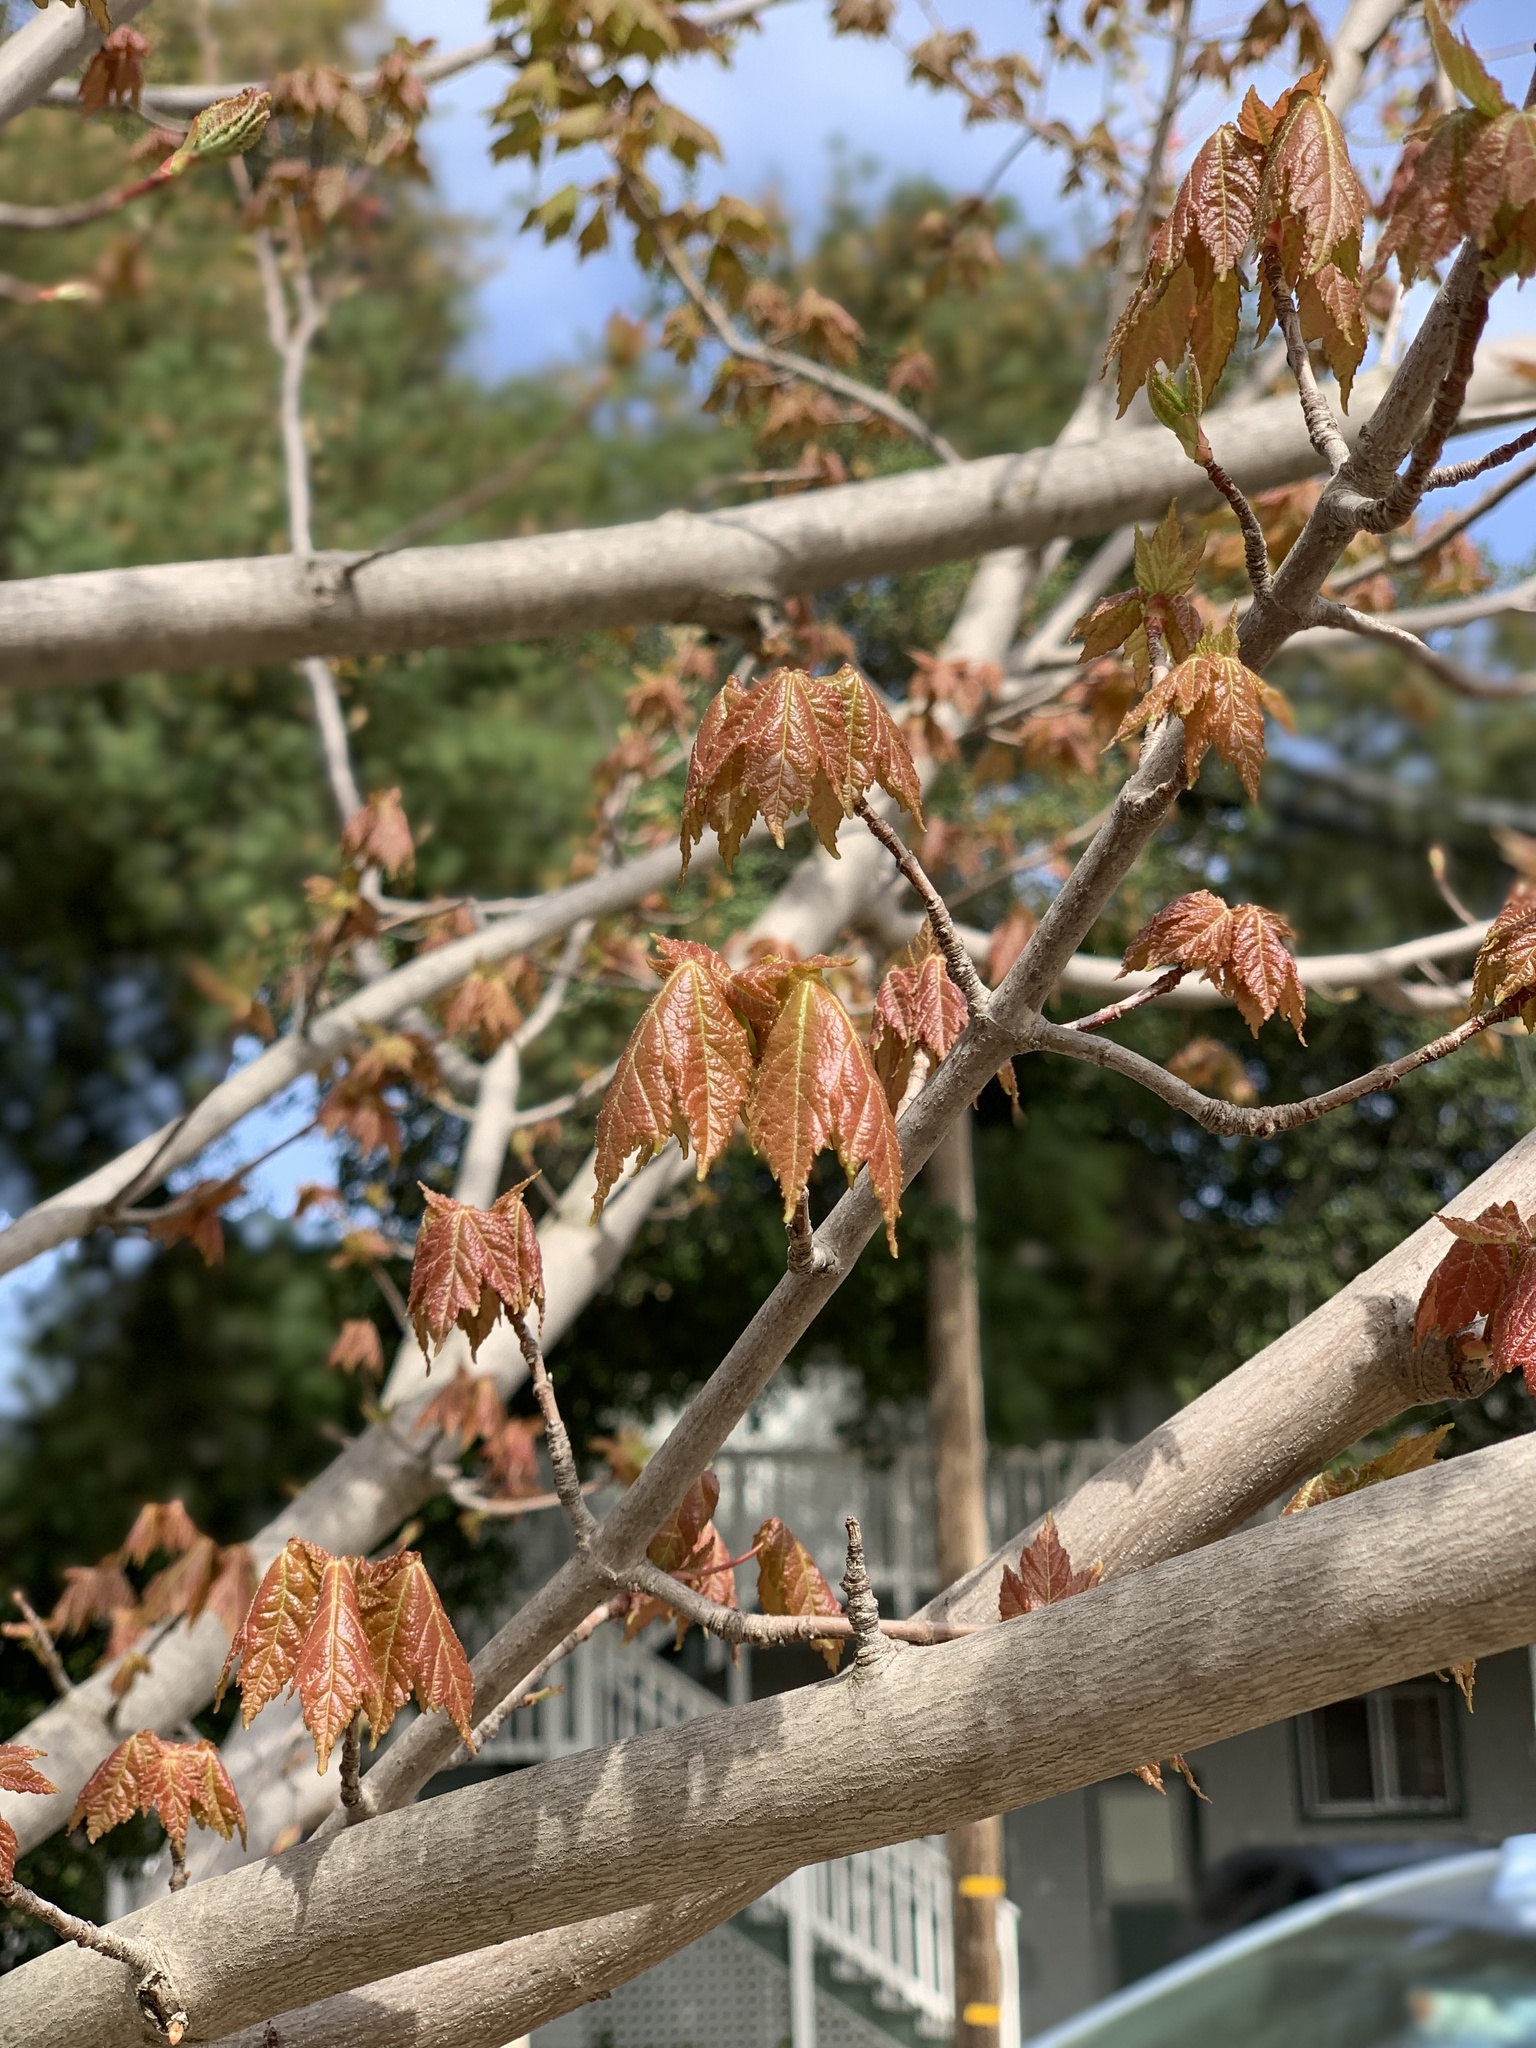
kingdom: Plantae
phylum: Tracheophyta
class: Magnoliopsida
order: Sapindales
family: Sapindaceae
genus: Acer
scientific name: Acer rubrum
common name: Red maple
